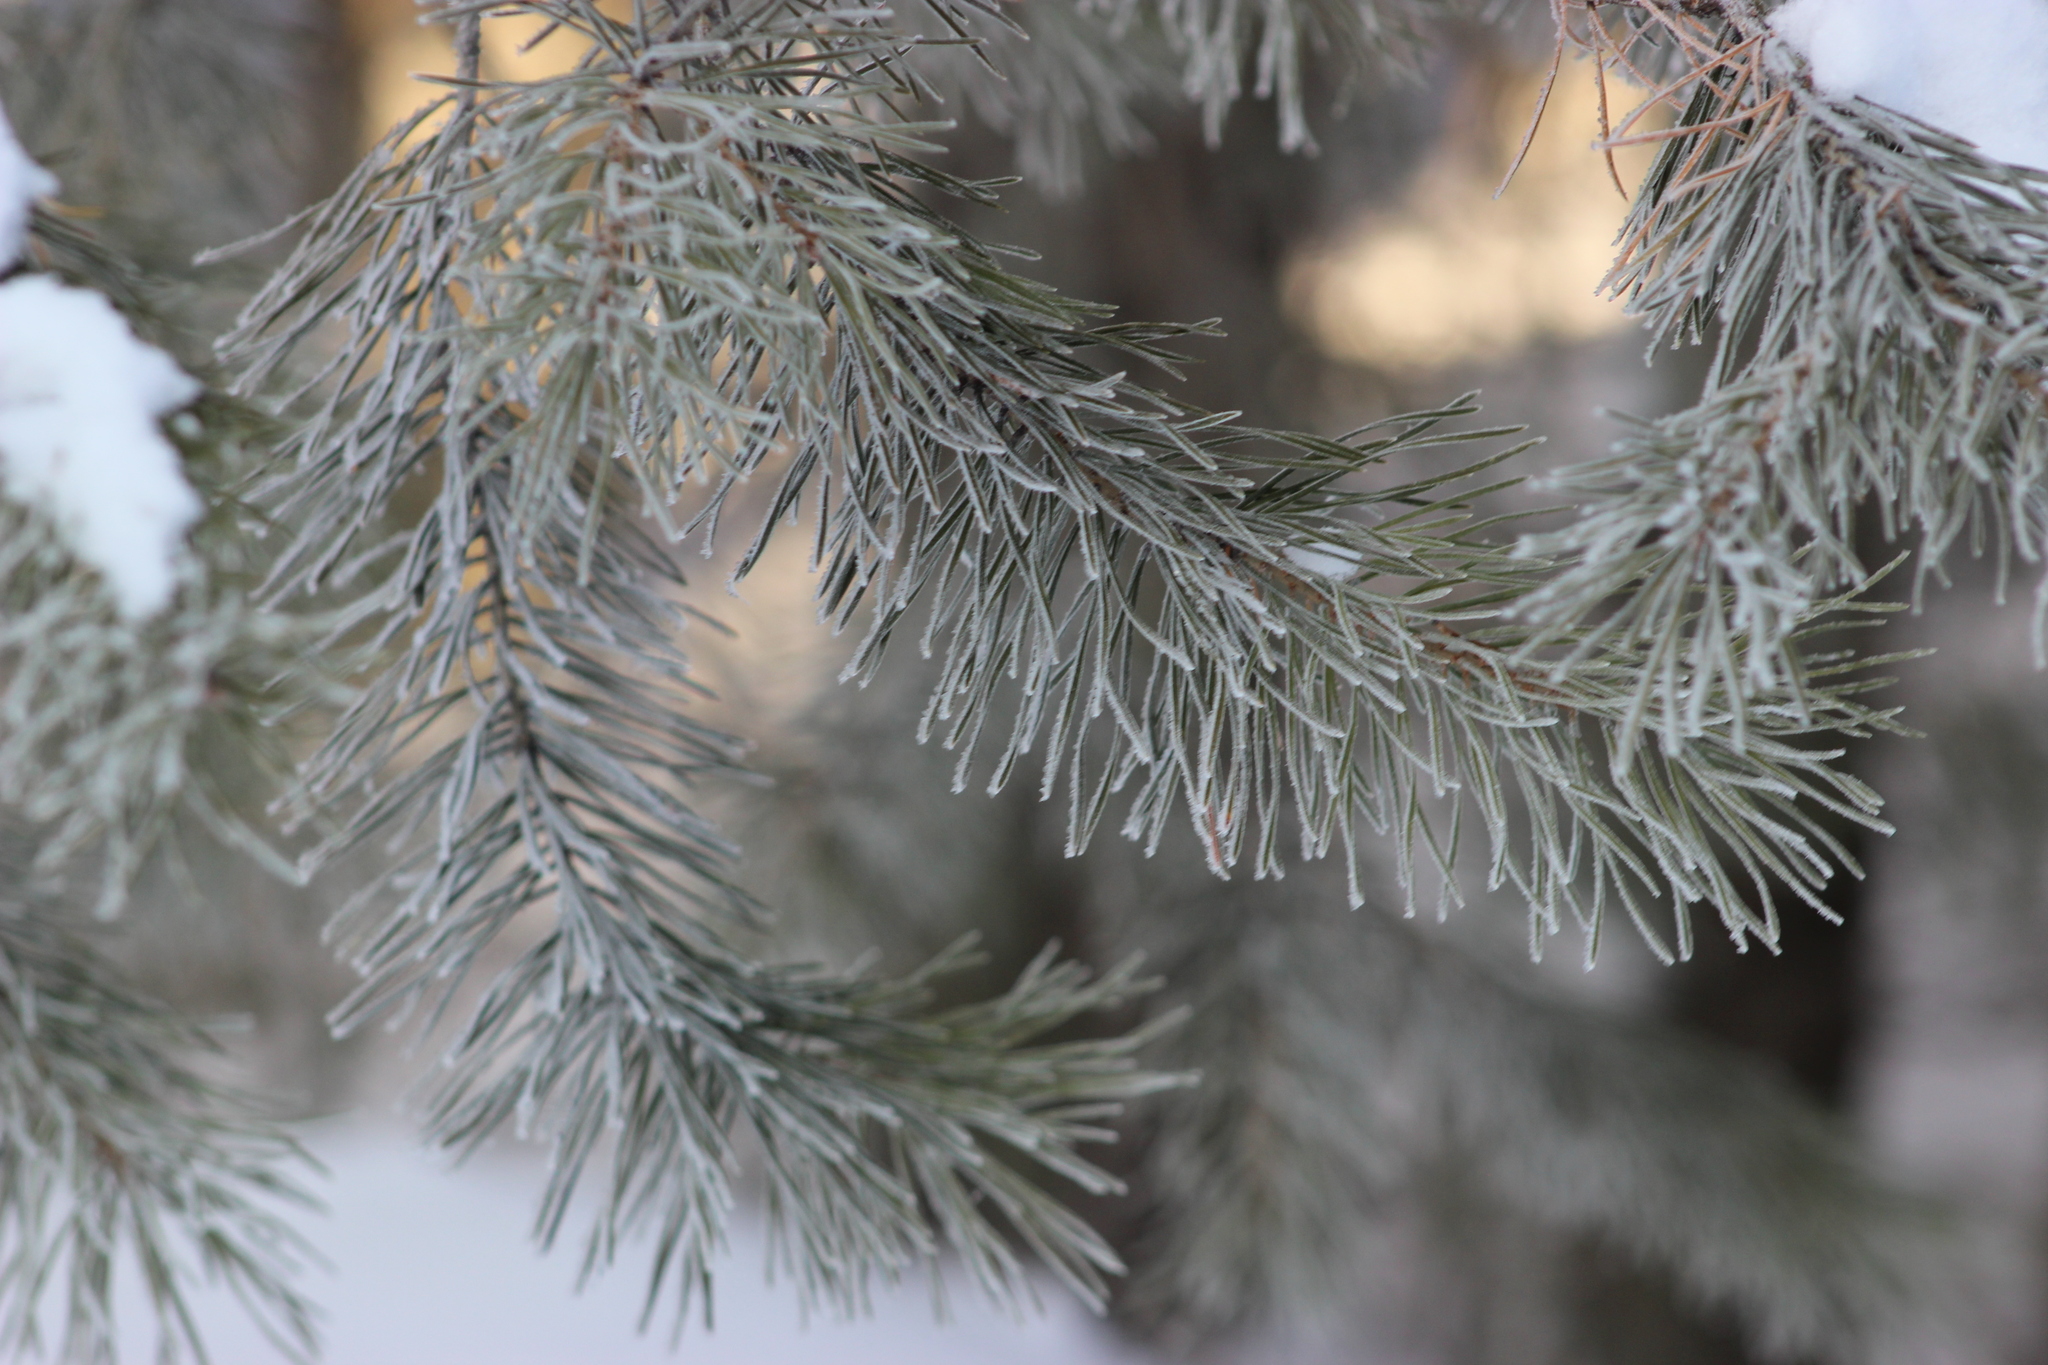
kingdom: Plantae
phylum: Tracheophyta
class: Pinopsida
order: Pinales
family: Pinaceae
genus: Pinus
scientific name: Pinus sylvestris
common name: Scots pine
